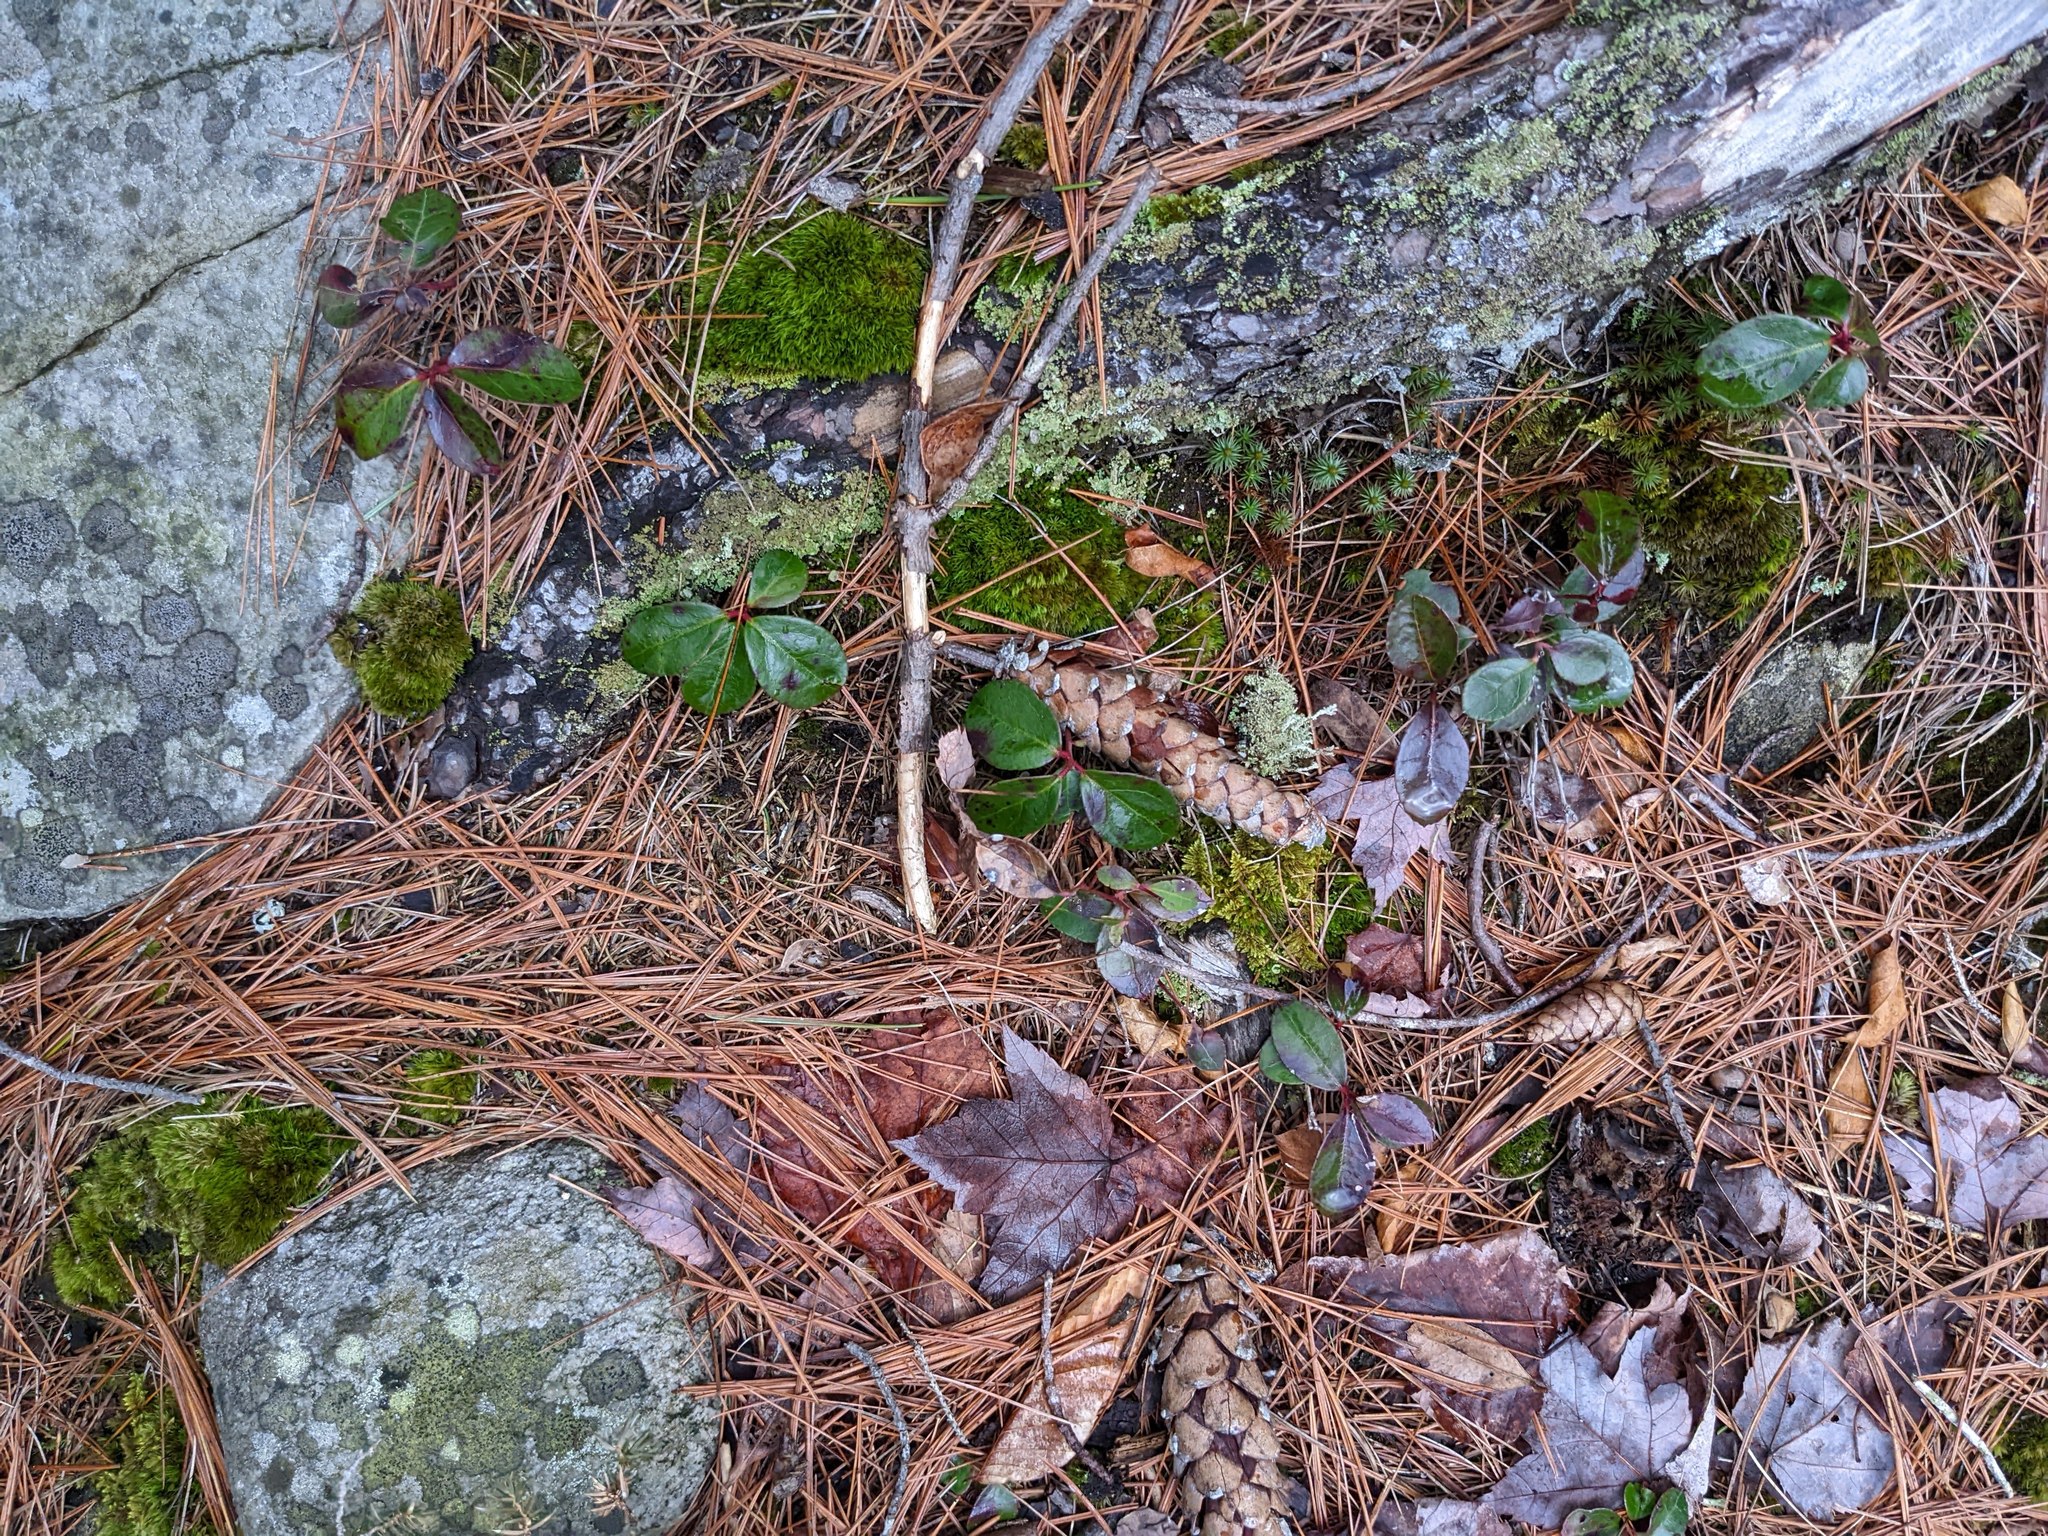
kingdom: Plantae
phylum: Tracheophyta
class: Magnoliopsida
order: Sapindales
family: Sapindaceae
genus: Acer
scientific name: Acer rubrum
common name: Red maple
